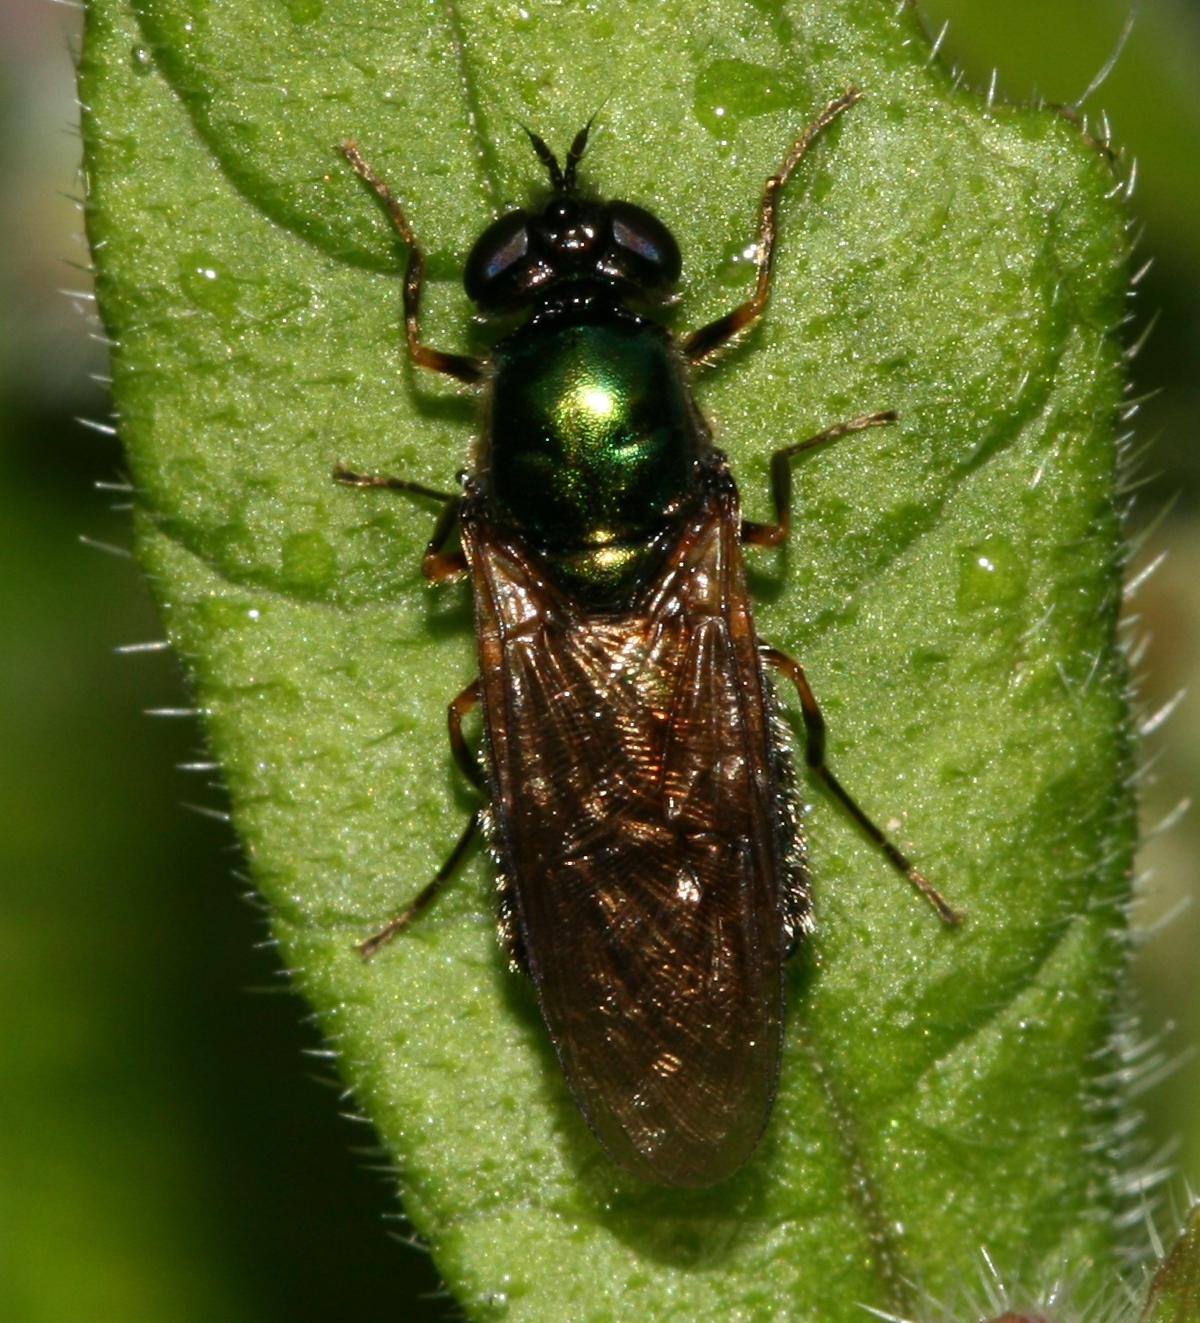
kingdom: Animalia
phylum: Arthropoda
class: Insecta
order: Diptera
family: Stratiomyidae
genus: Chloromyia
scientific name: Chloromyia formosa
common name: Soldier fly
